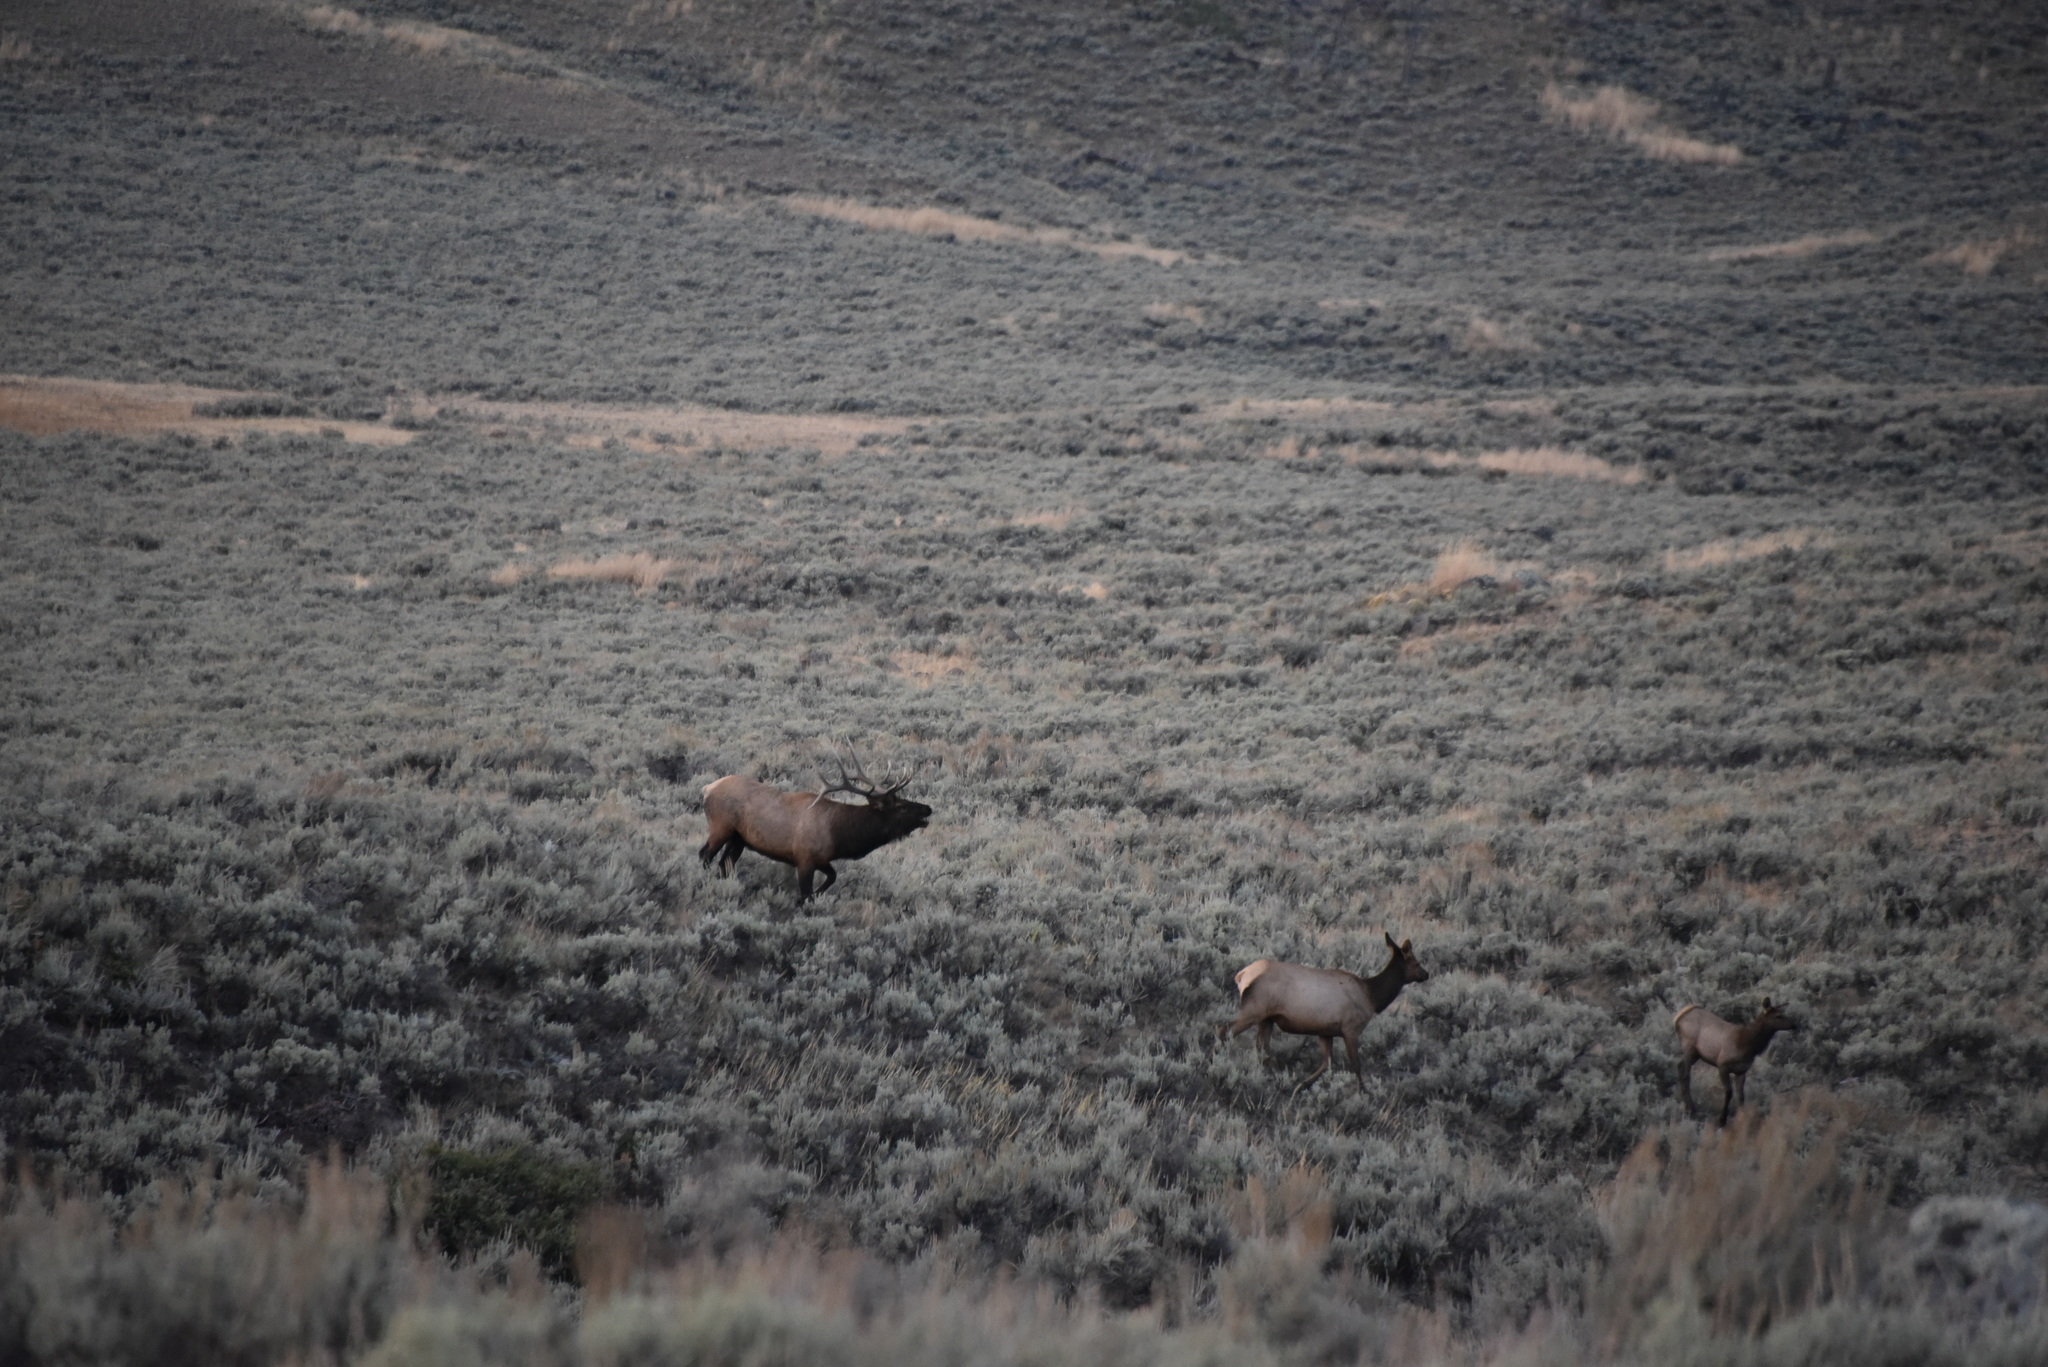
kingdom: Animalia
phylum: Chordata
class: Mammalia
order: Artiodactyla
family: Cervidae
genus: Cervus
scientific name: Cervus elaphus
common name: Red deer
